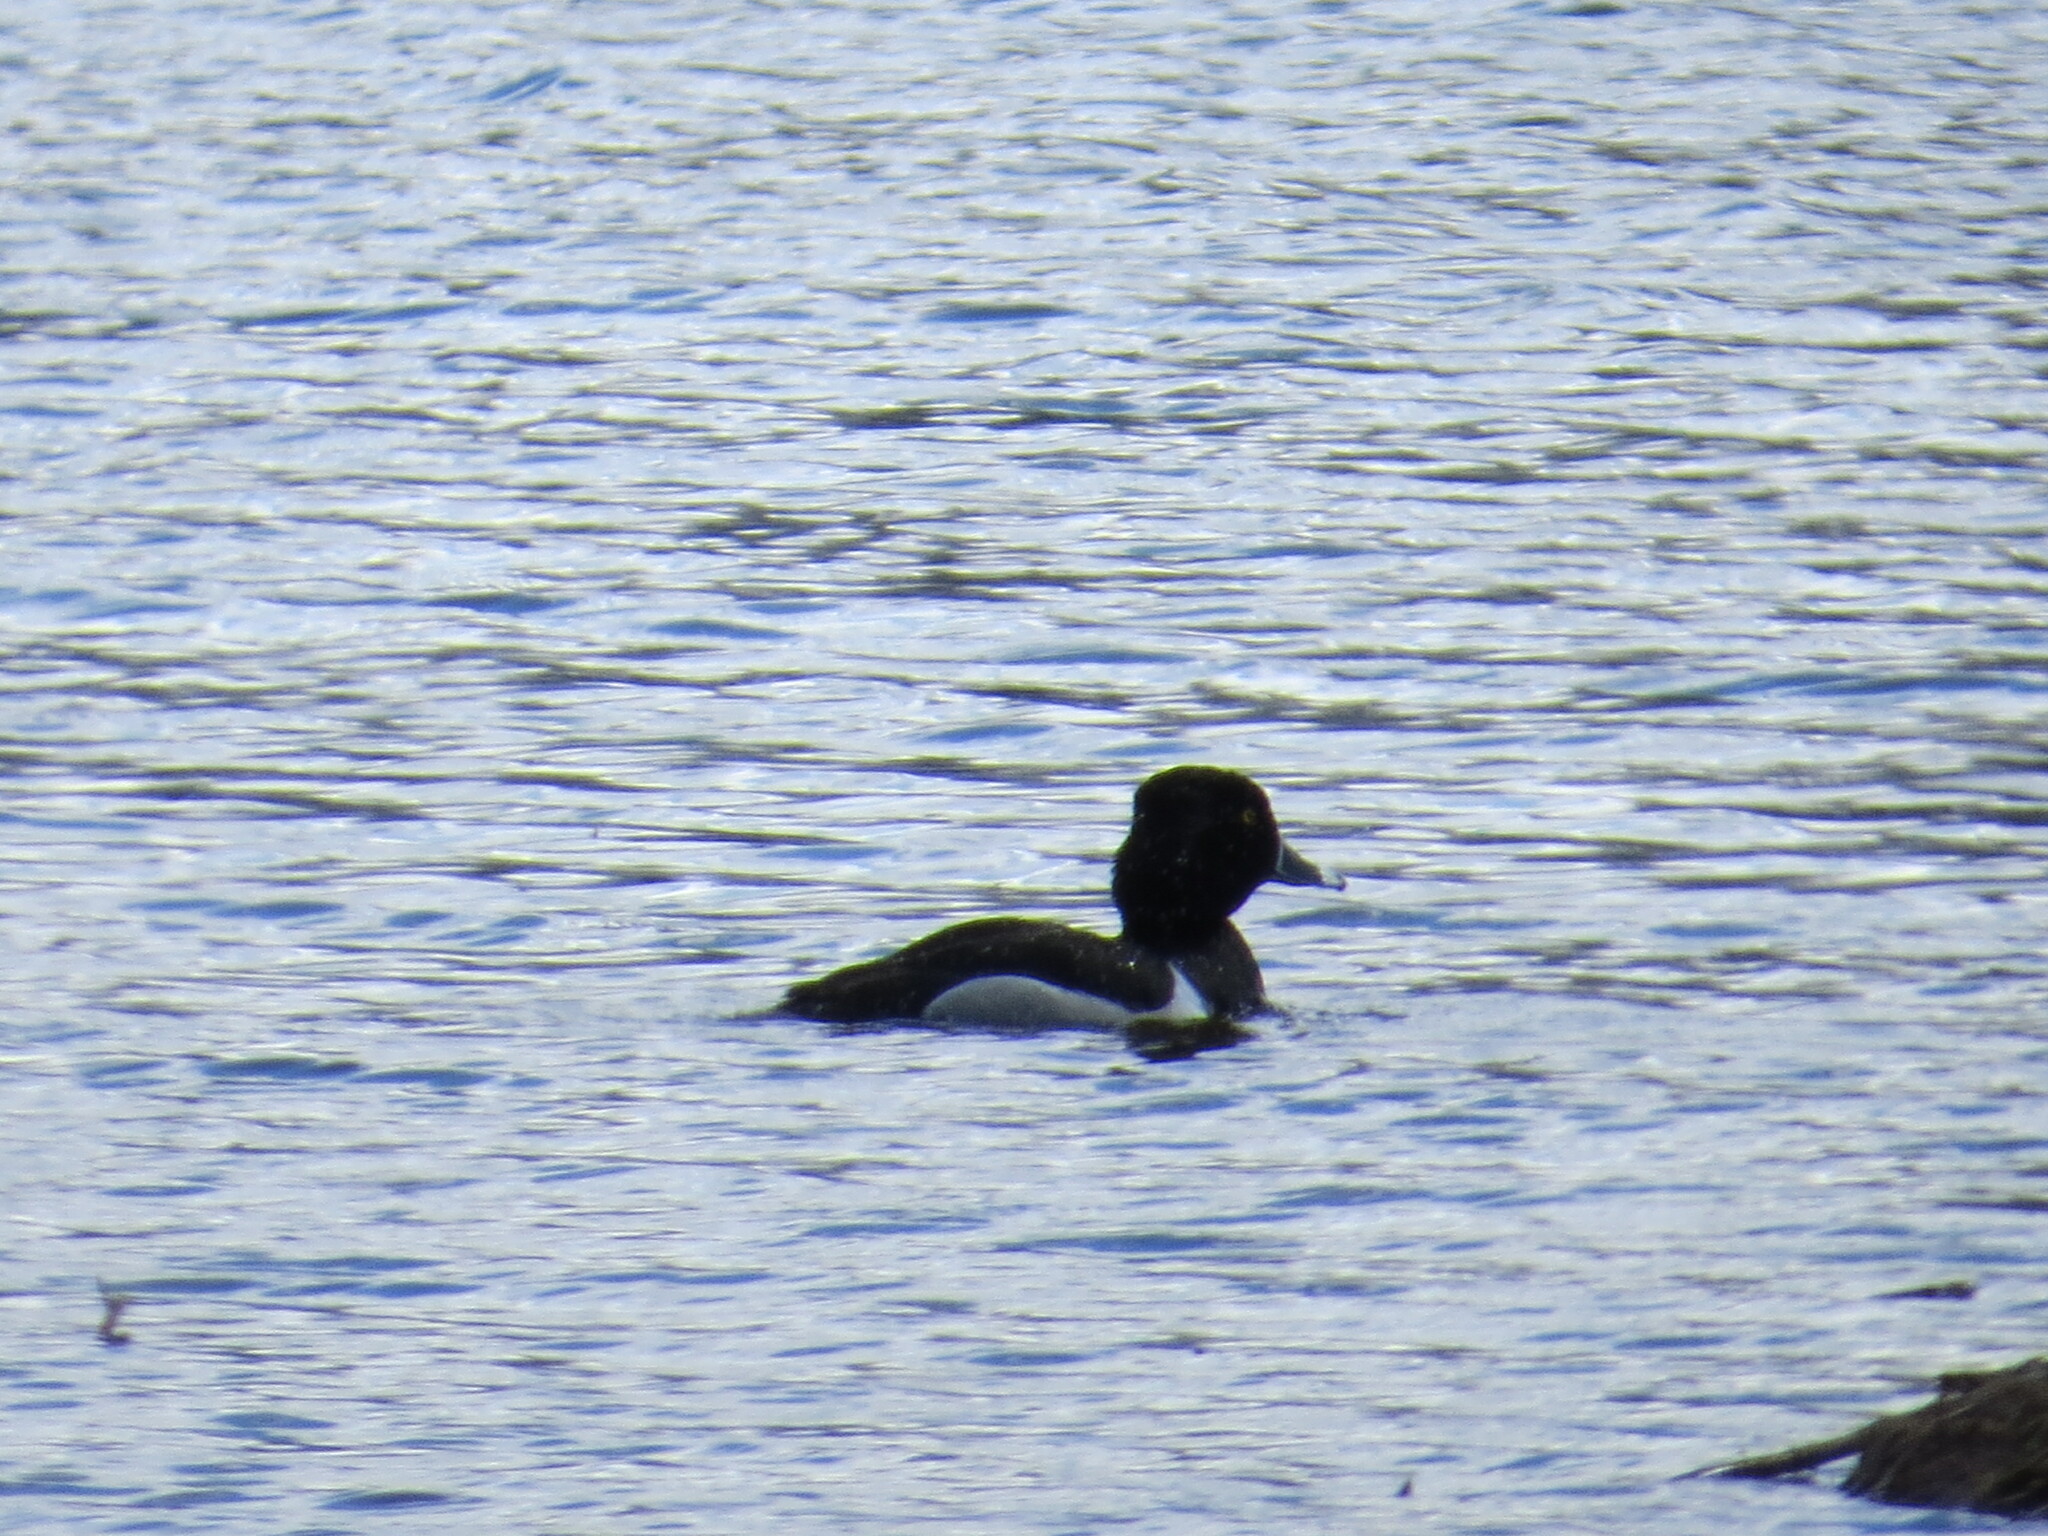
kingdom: Animalia
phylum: Chordata
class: Aves
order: Anseriformes
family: Anatidae
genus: Aythya
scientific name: Aythya collaris
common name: Ring-necked duck
